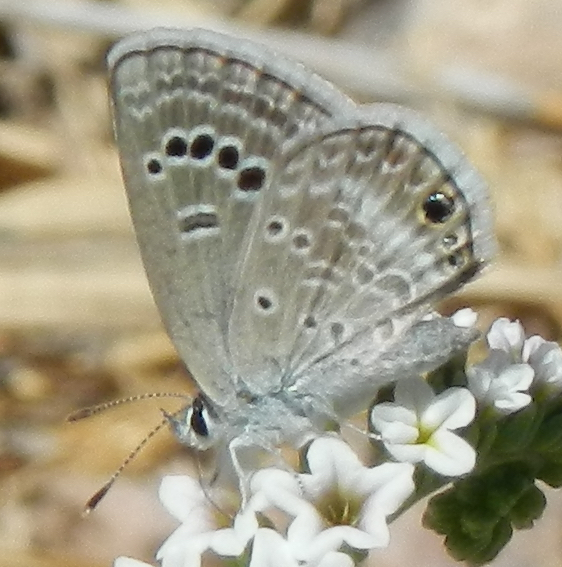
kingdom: Animalia
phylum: Arthropoda
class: Insecta
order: Lepidoptera
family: Lycaenidae
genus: Echinargus
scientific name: Echinargus isola
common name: Reakirt's blue
